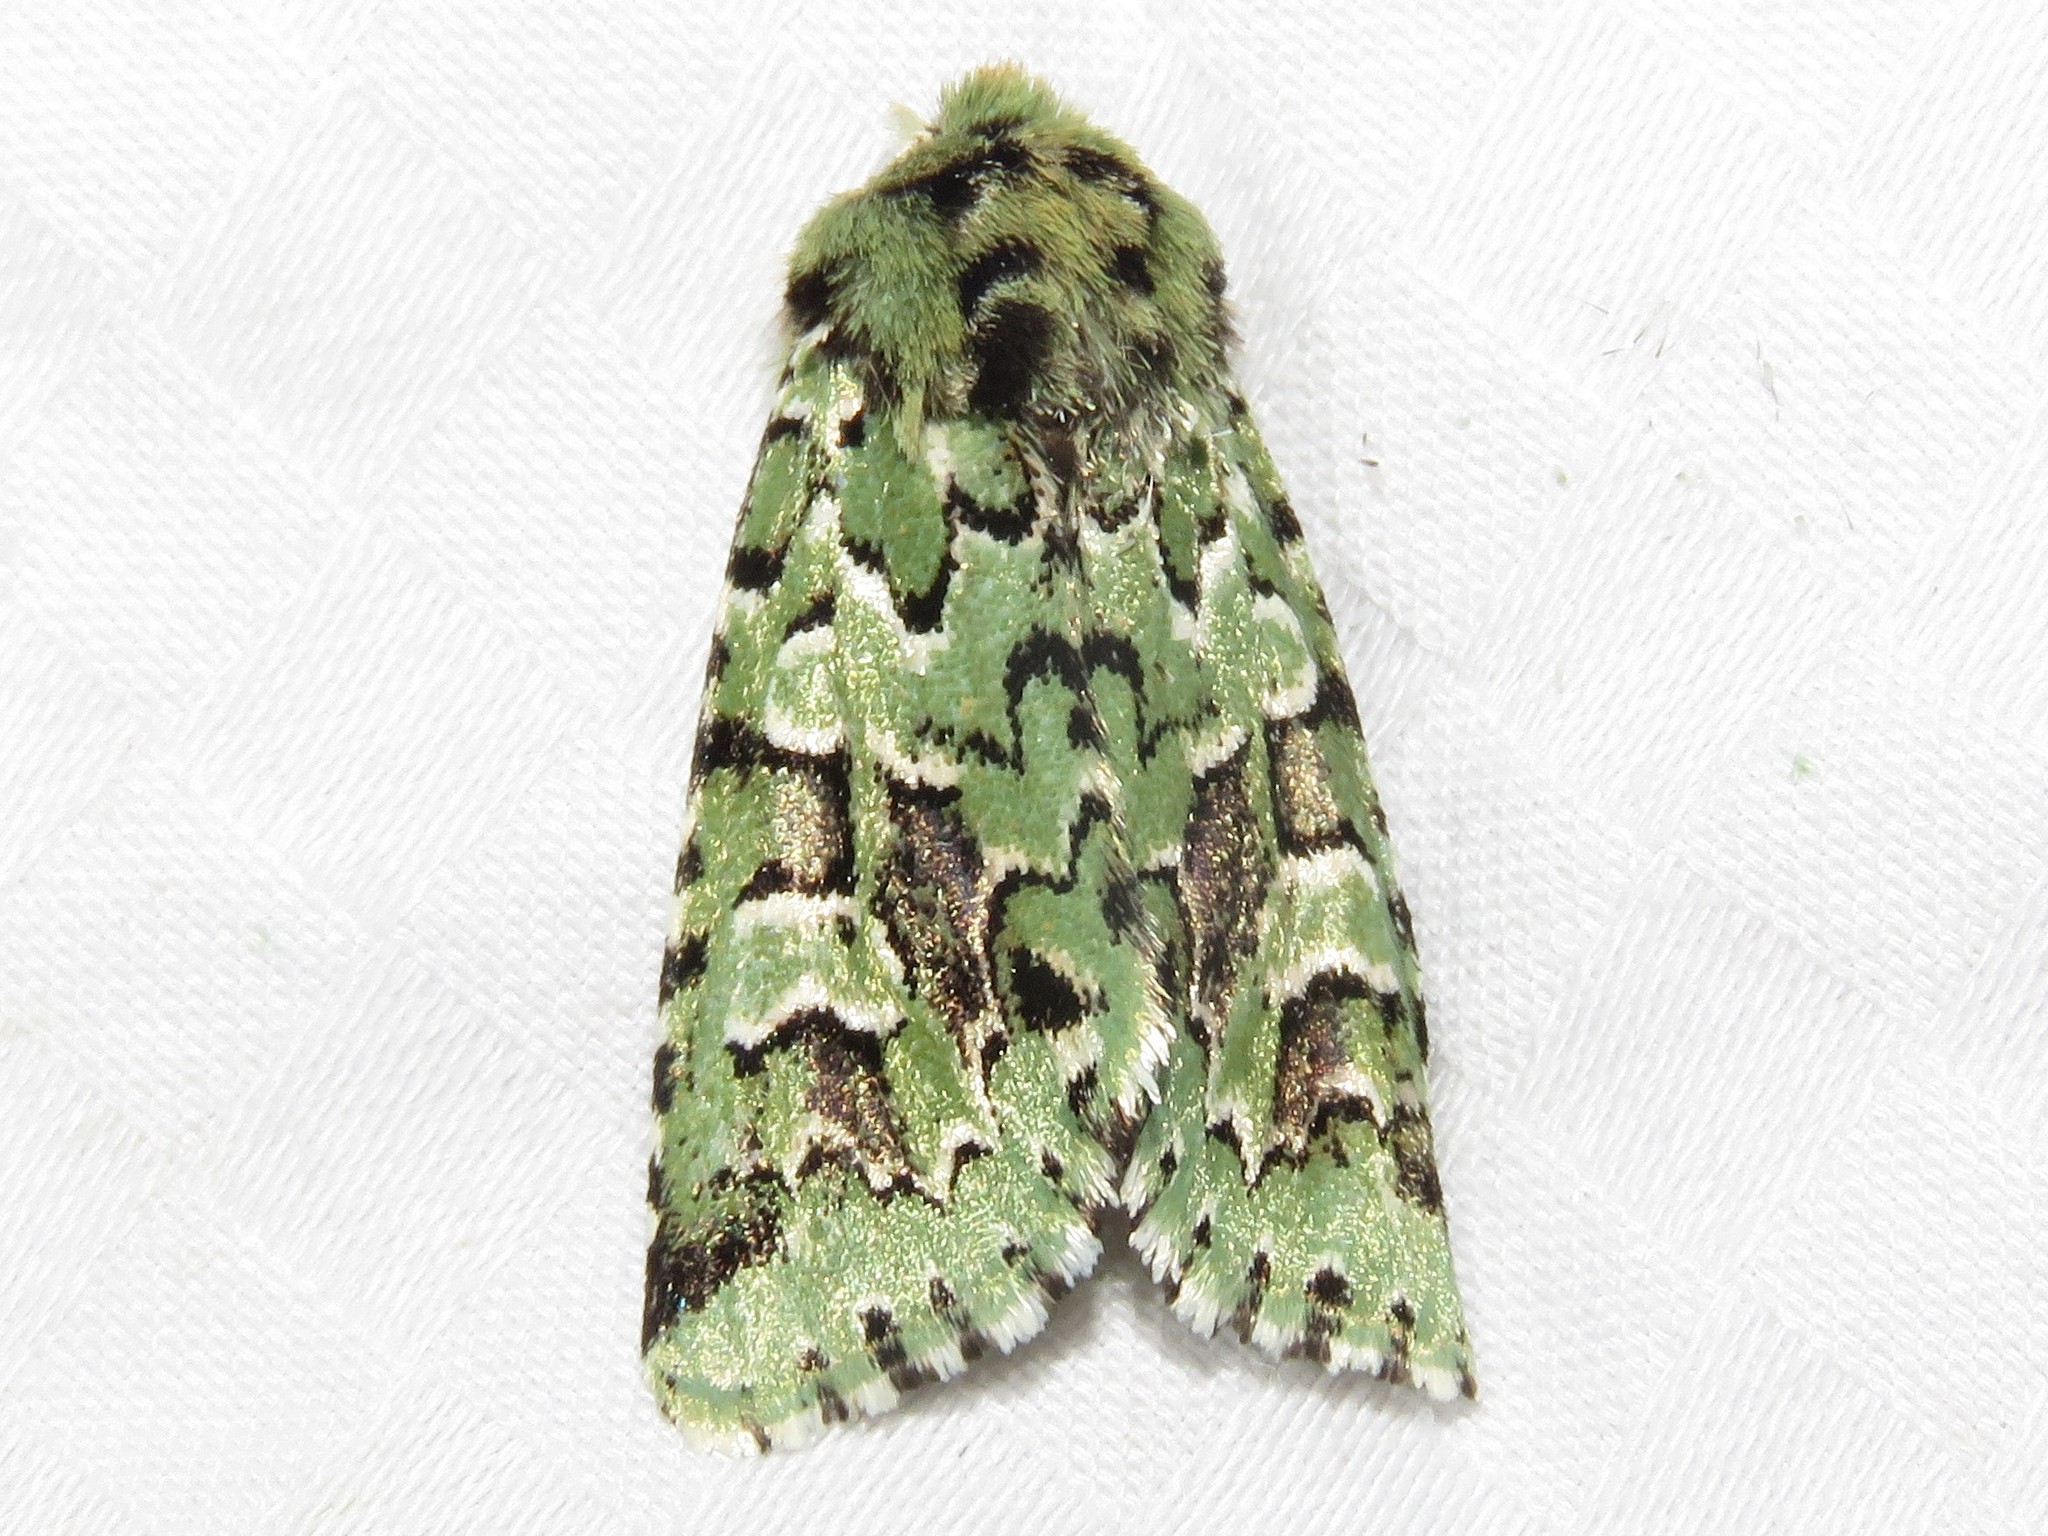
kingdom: Animalia
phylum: Arthropoda
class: Insecta
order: Lepidoptera
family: Noctuidae
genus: Feralia
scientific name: Feralia comstocki
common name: Comstock's sallow
